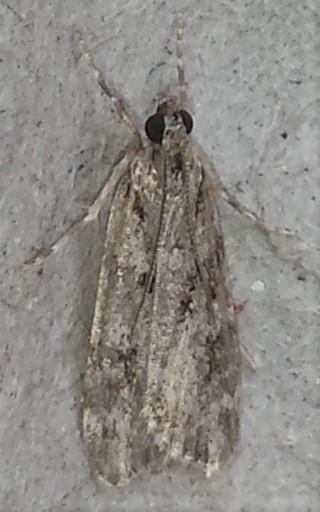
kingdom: Animalia
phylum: Arthropoda
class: Insecta
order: Lepidoptera
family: Crambidae
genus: Scoparia
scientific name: Scoparia biplagialis
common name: Double-striped scoparia moth
